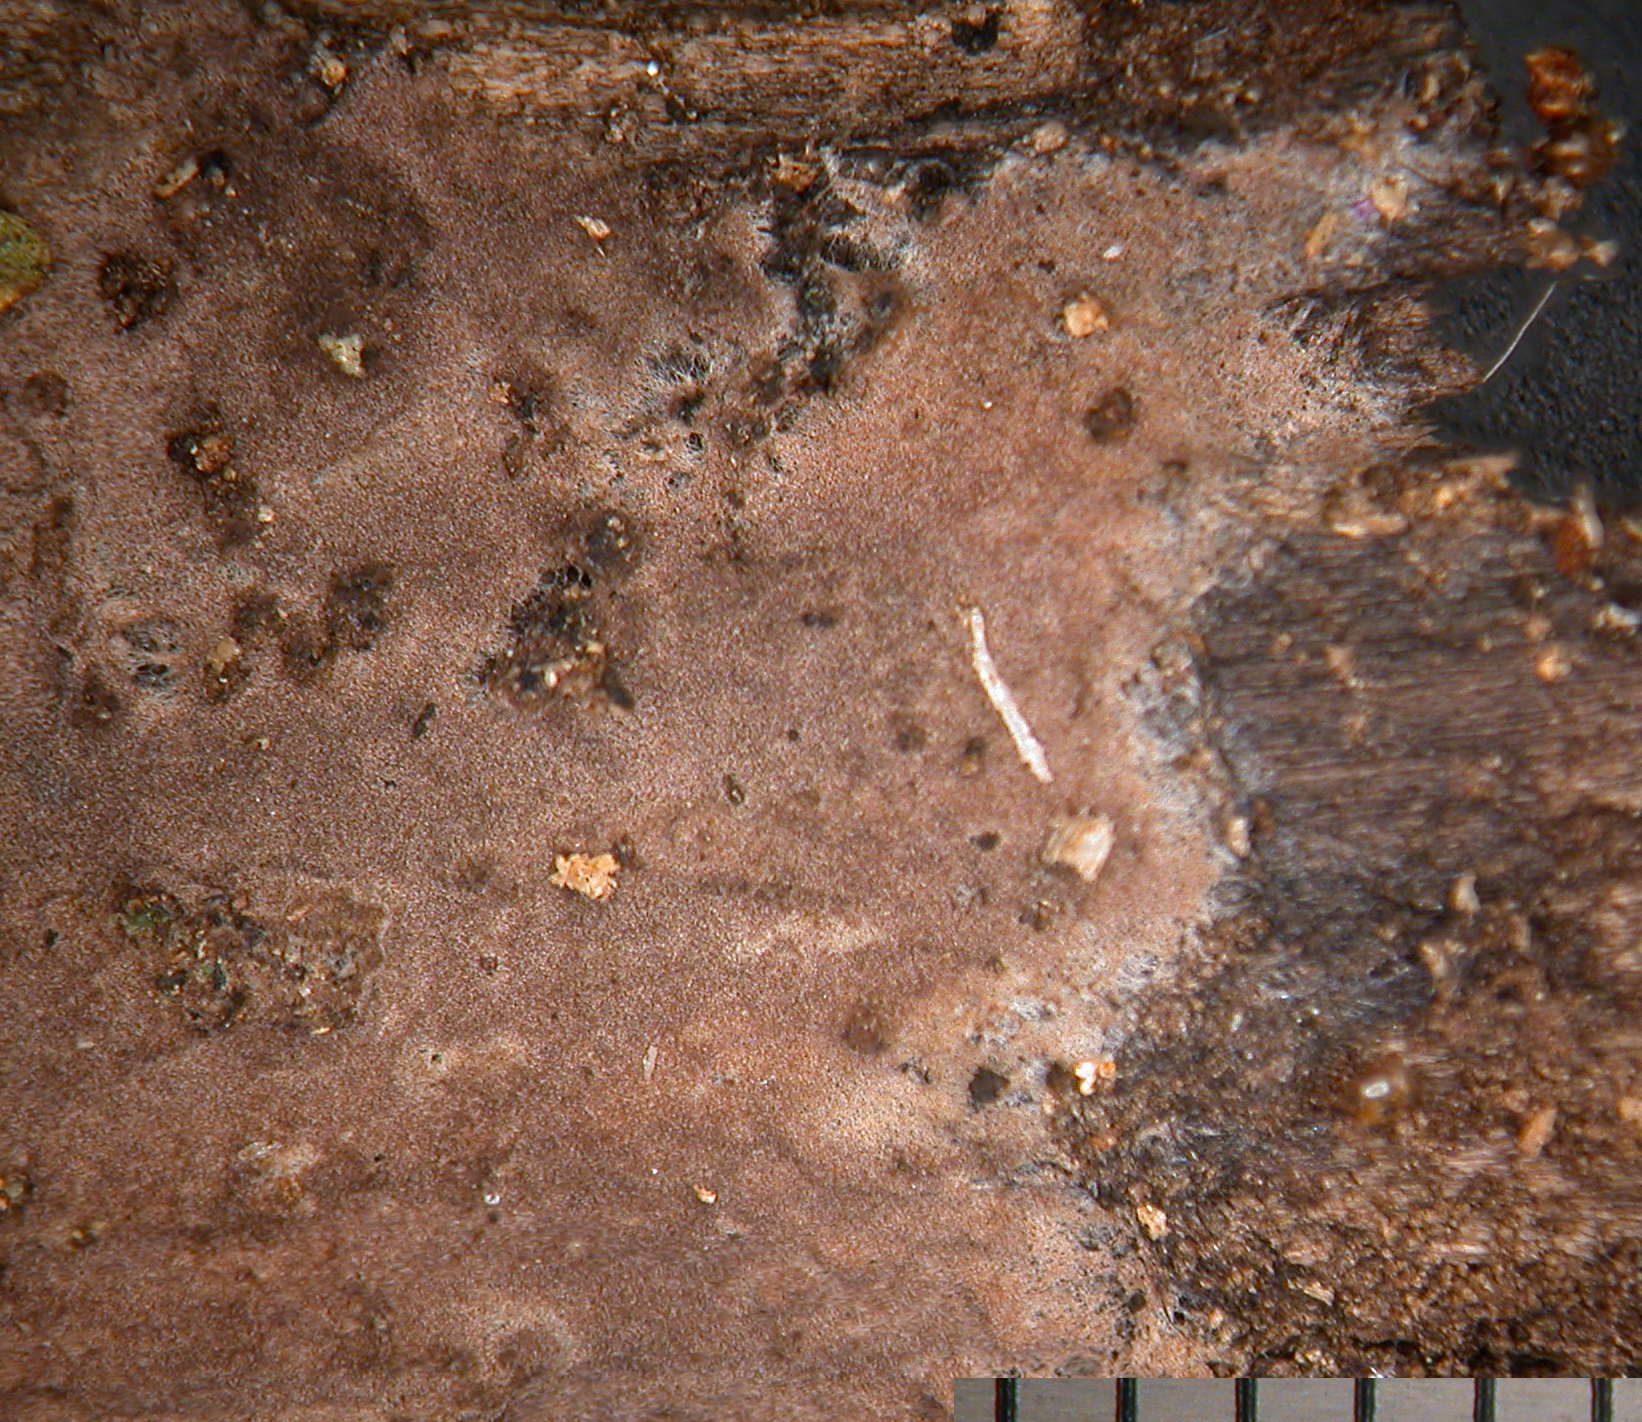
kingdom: Fungi
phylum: Basidiomycota
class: Agaricomycetes
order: Thelephorales
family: Thelephoraceae
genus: Thelephora
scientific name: Thelephora ellisii
